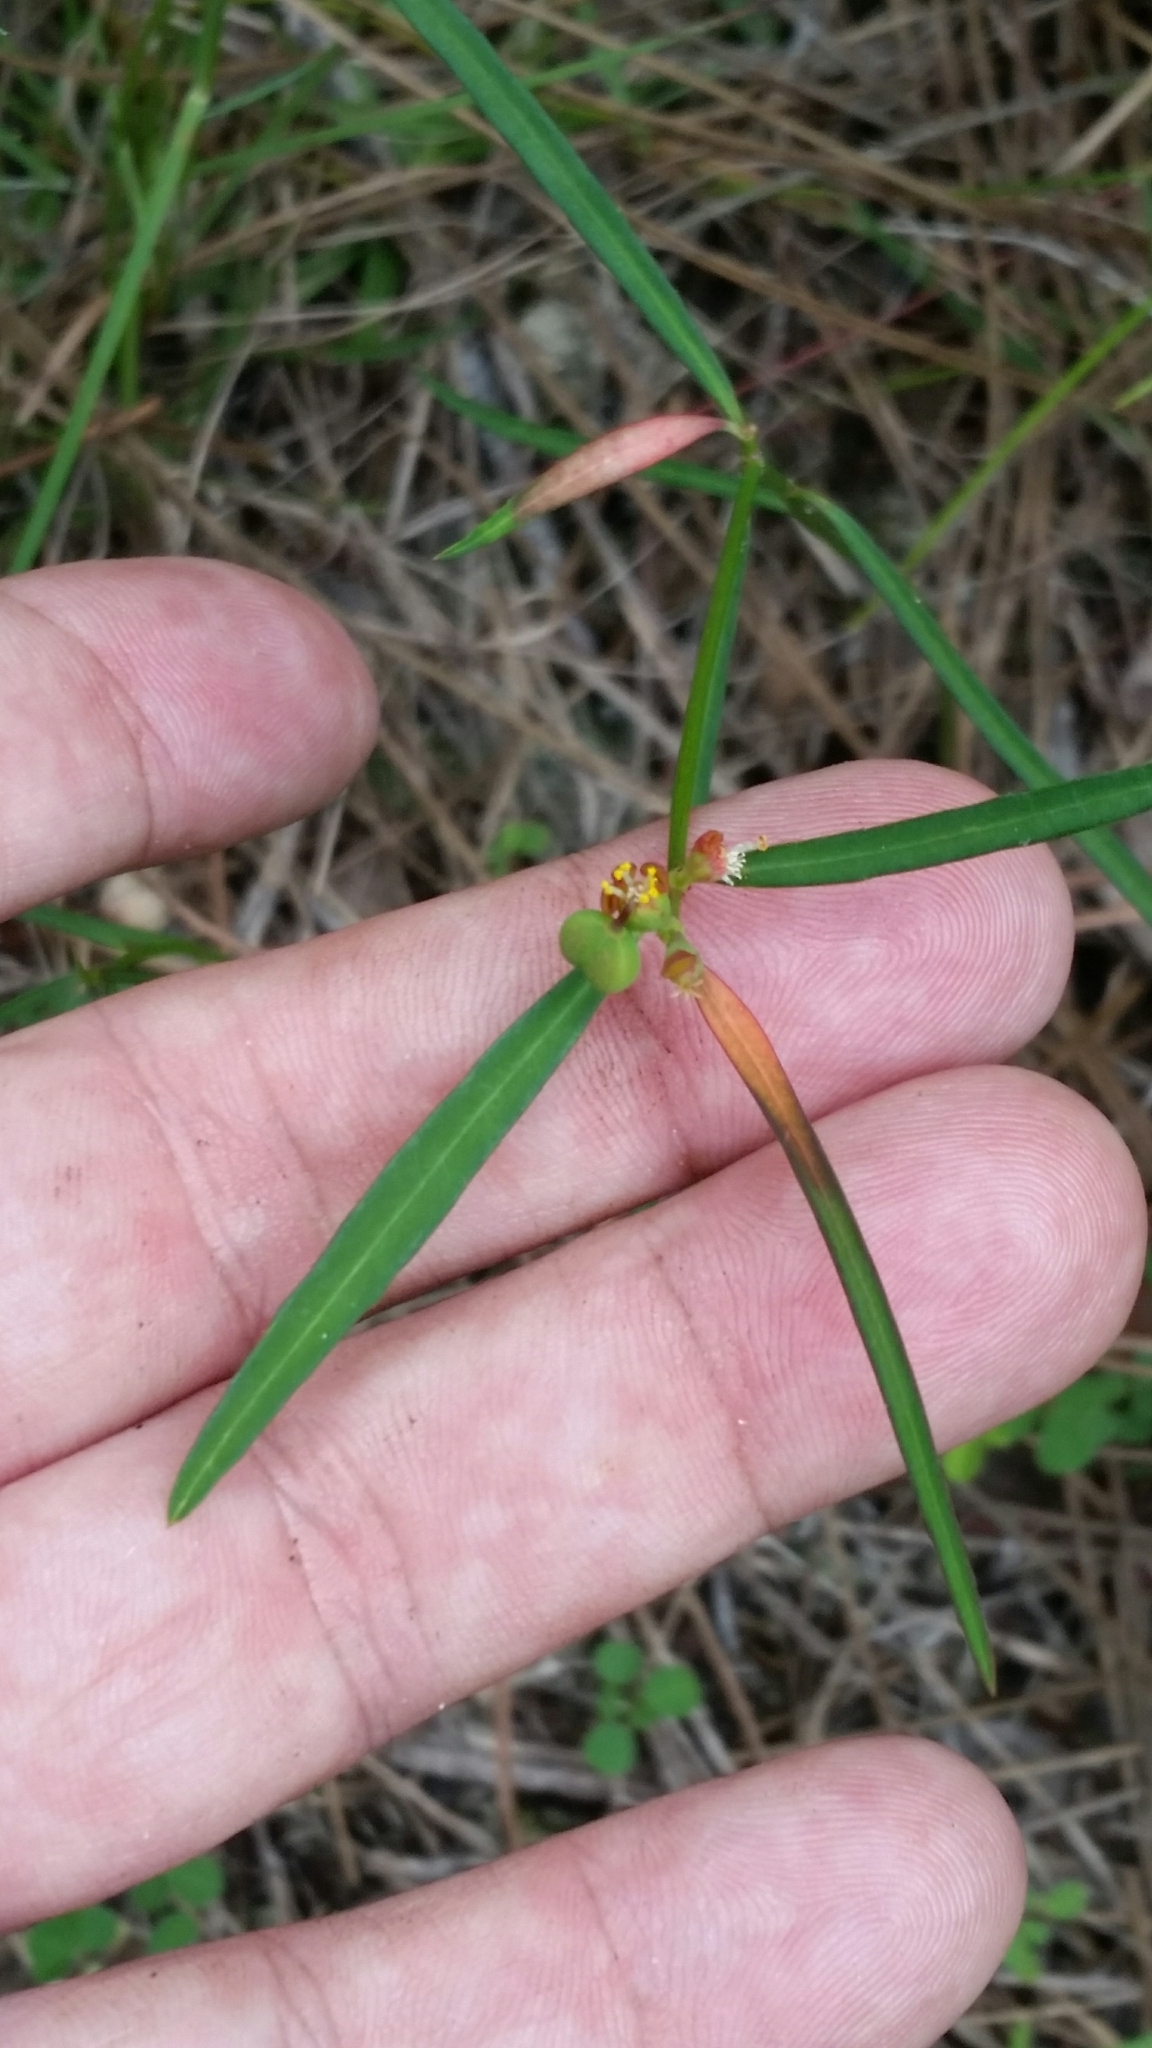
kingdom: Plantae
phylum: Tracheophyta
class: Magnoliopsida
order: Malpighiales
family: Euphorbiaceae
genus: Euphorbia
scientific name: Euphorbia pinetorum
